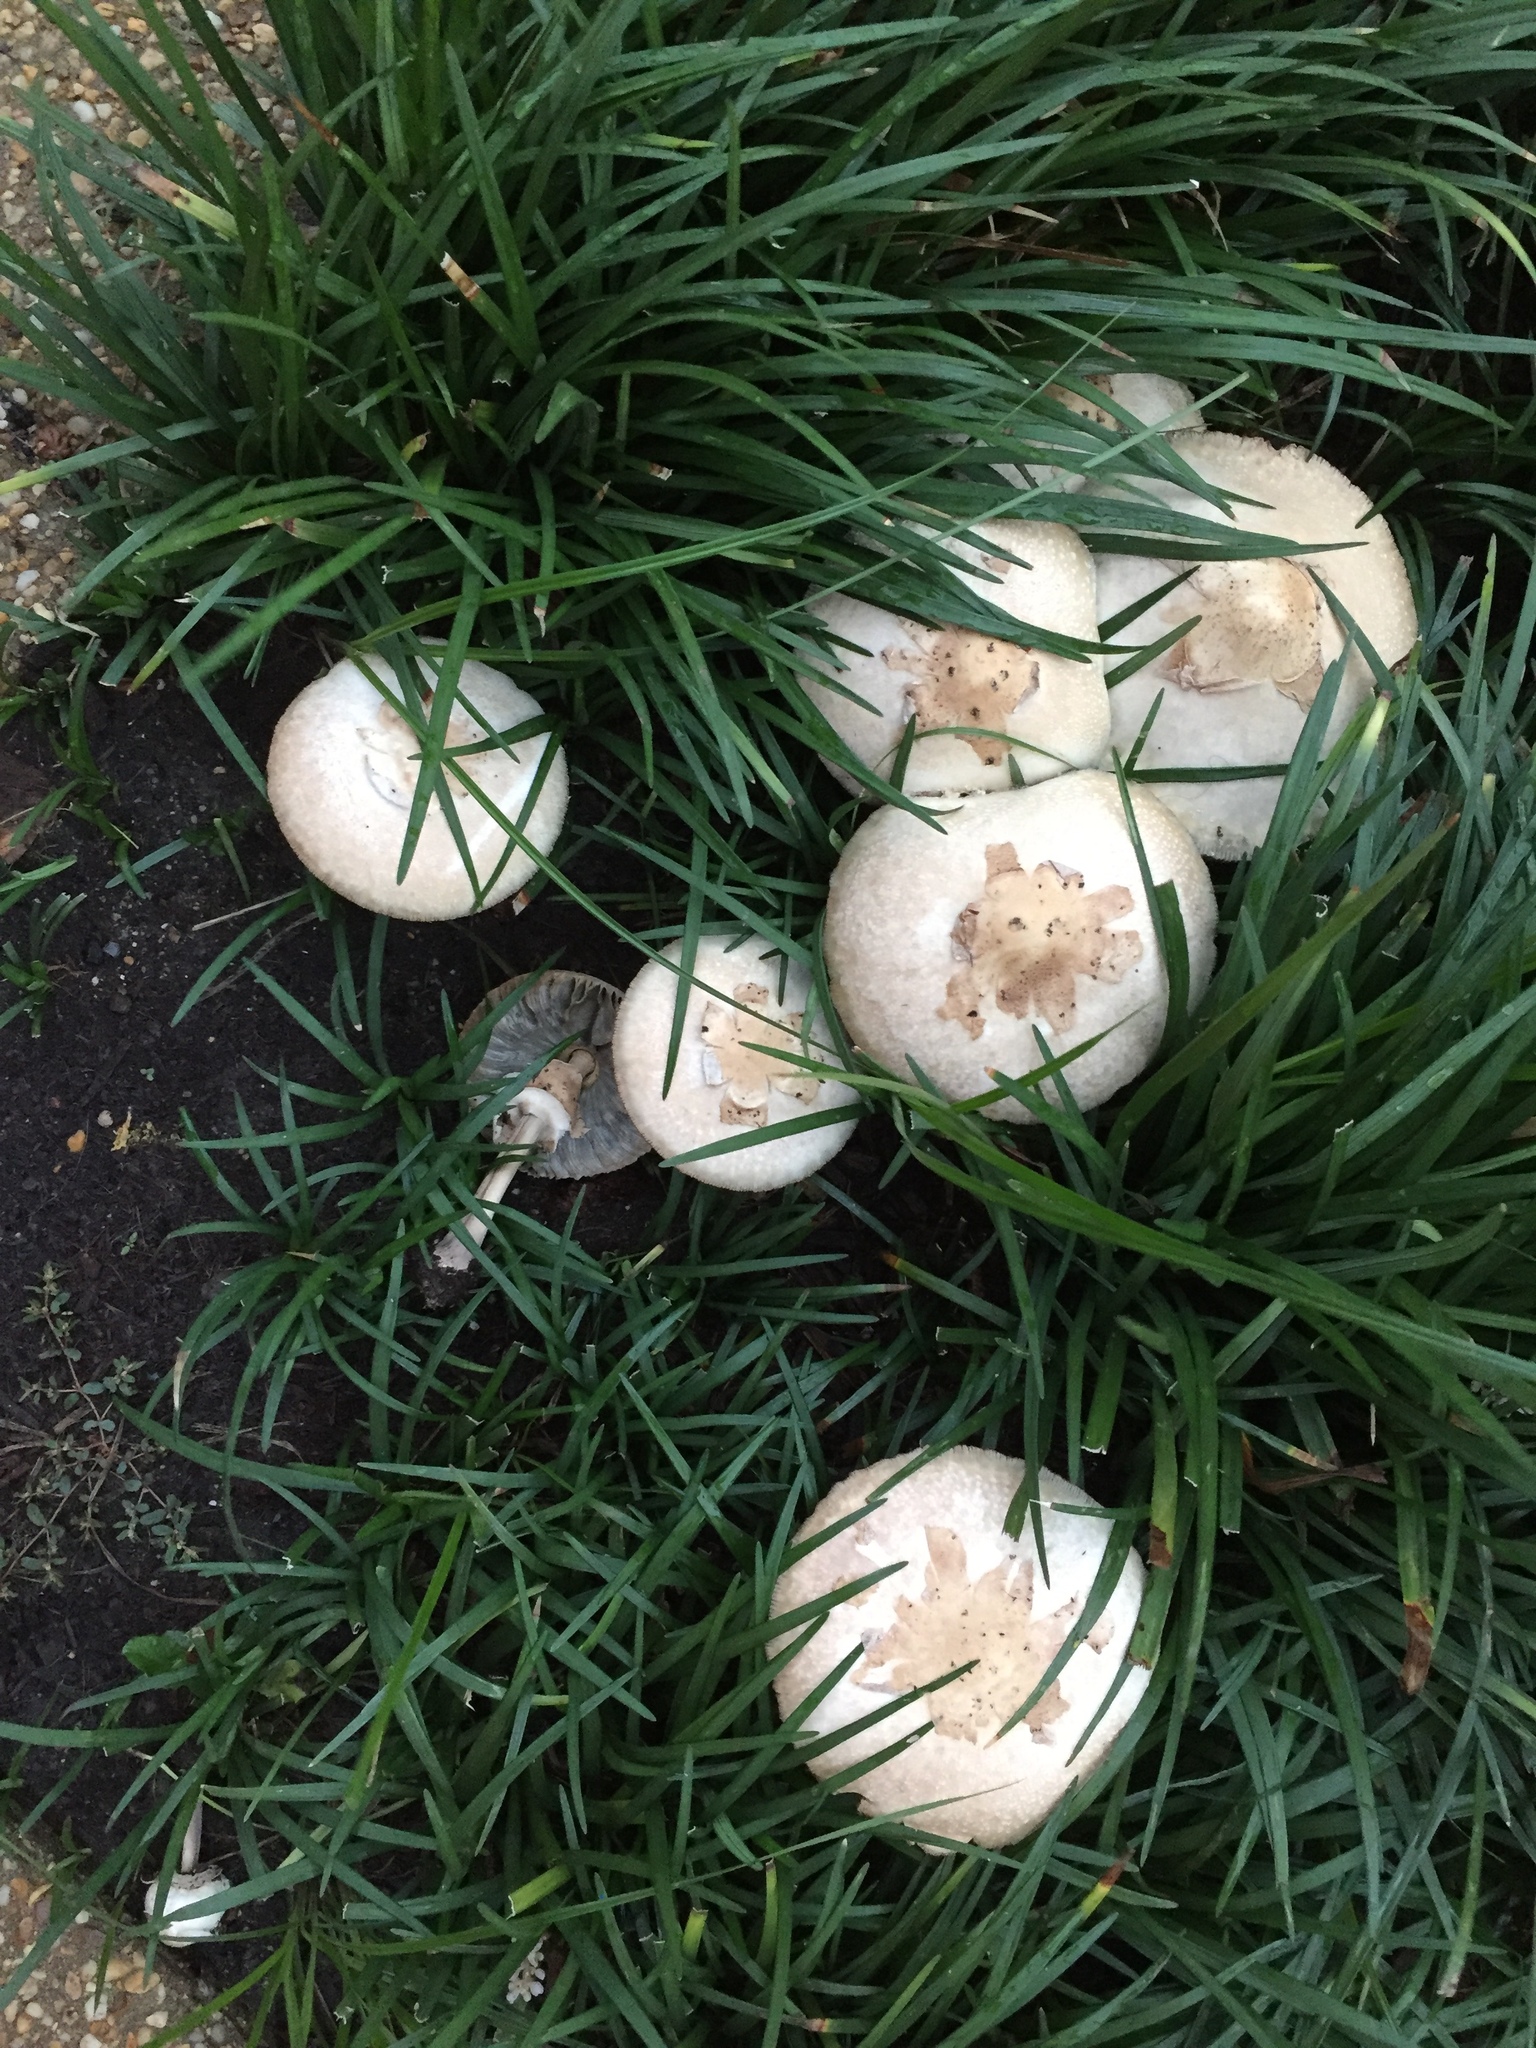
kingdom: Fungi
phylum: Basidiomycota
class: Agaricomycetes
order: Agaricales
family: Agaricaceae
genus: Chlorophyllum
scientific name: Chlorophyllum molybdites
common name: False parasol
